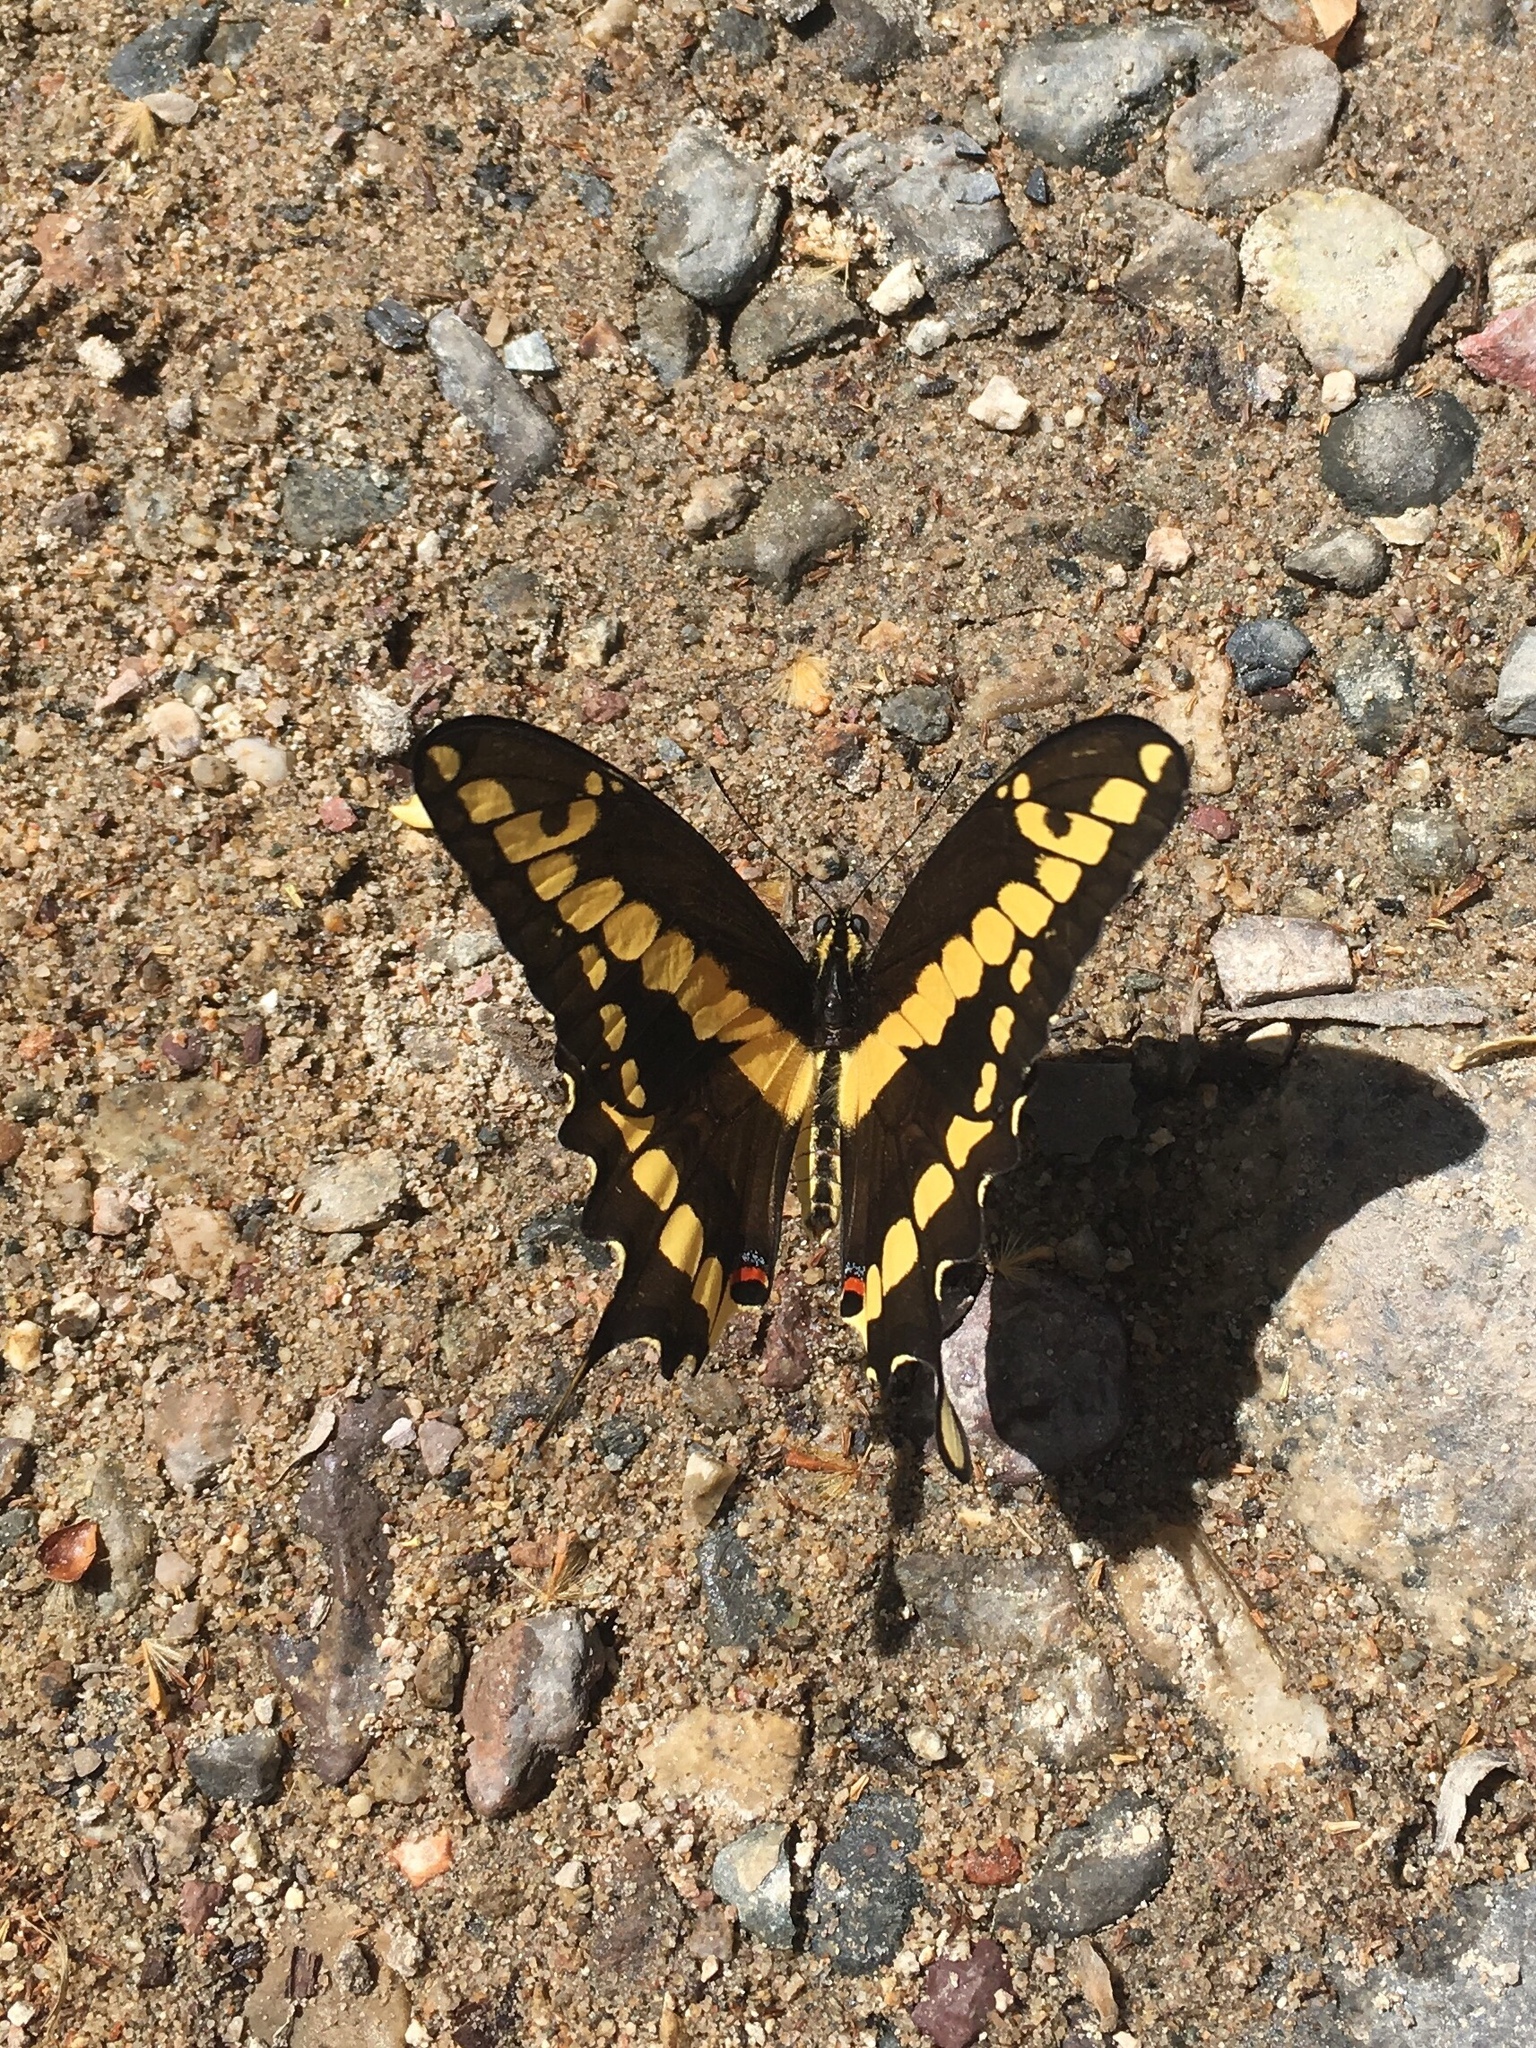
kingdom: Animalia
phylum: Arthropoda
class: Insecta
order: Lepidoptera
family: Papilionidae
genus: Papilio
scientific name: Papilio rumiko
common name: Western giant swallowtail
